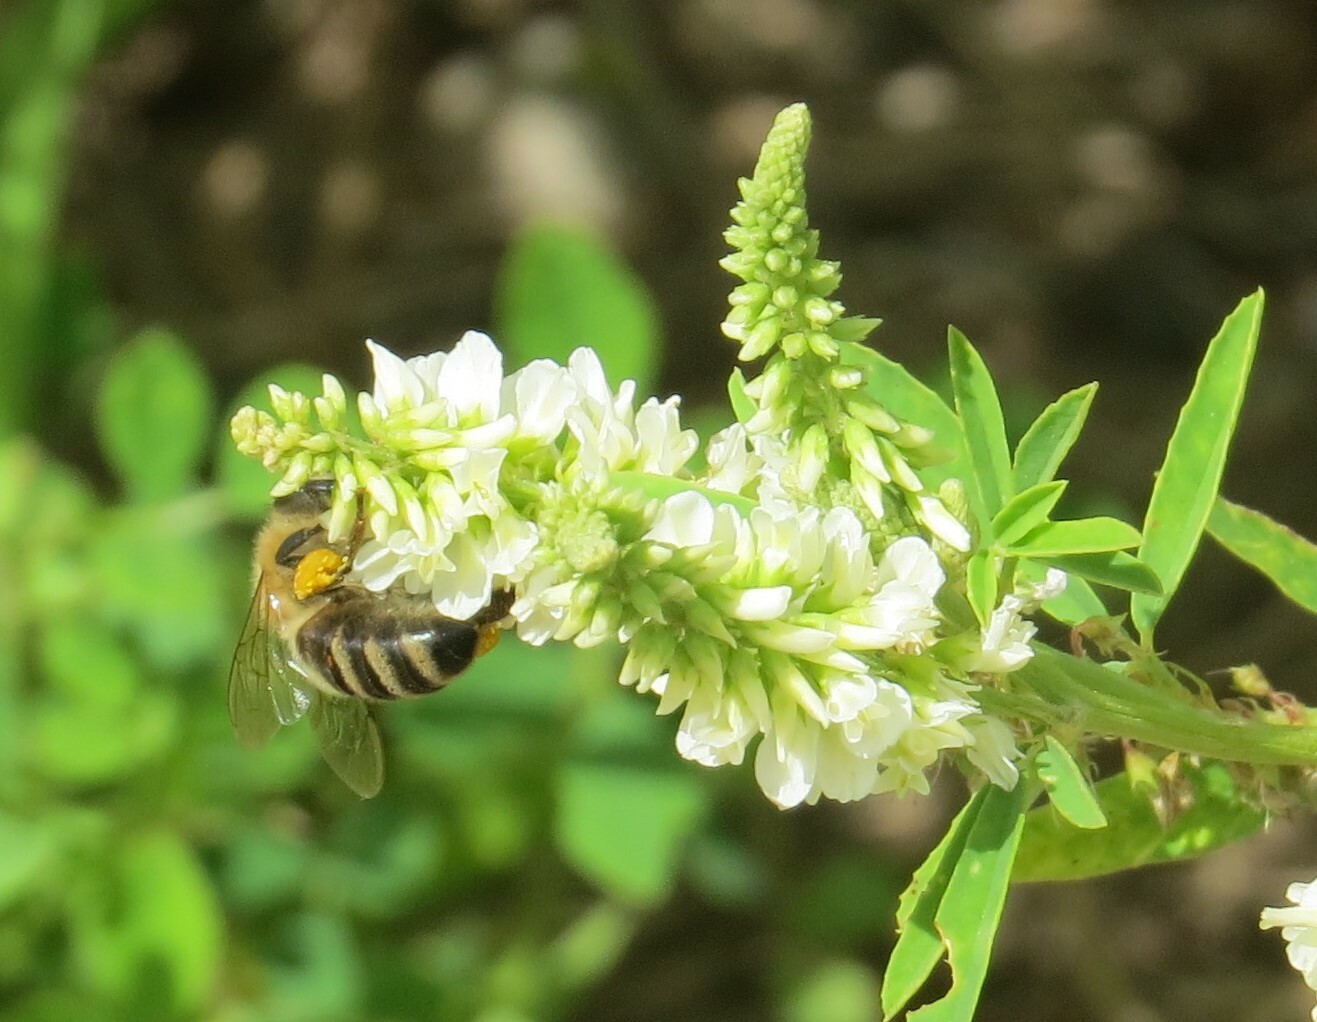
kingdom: Animalia
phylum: Arthropoda
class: Insecta
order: Hymenoptera
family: Apidae
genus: Apis
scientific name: Apis mellifera
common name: Honey bee
